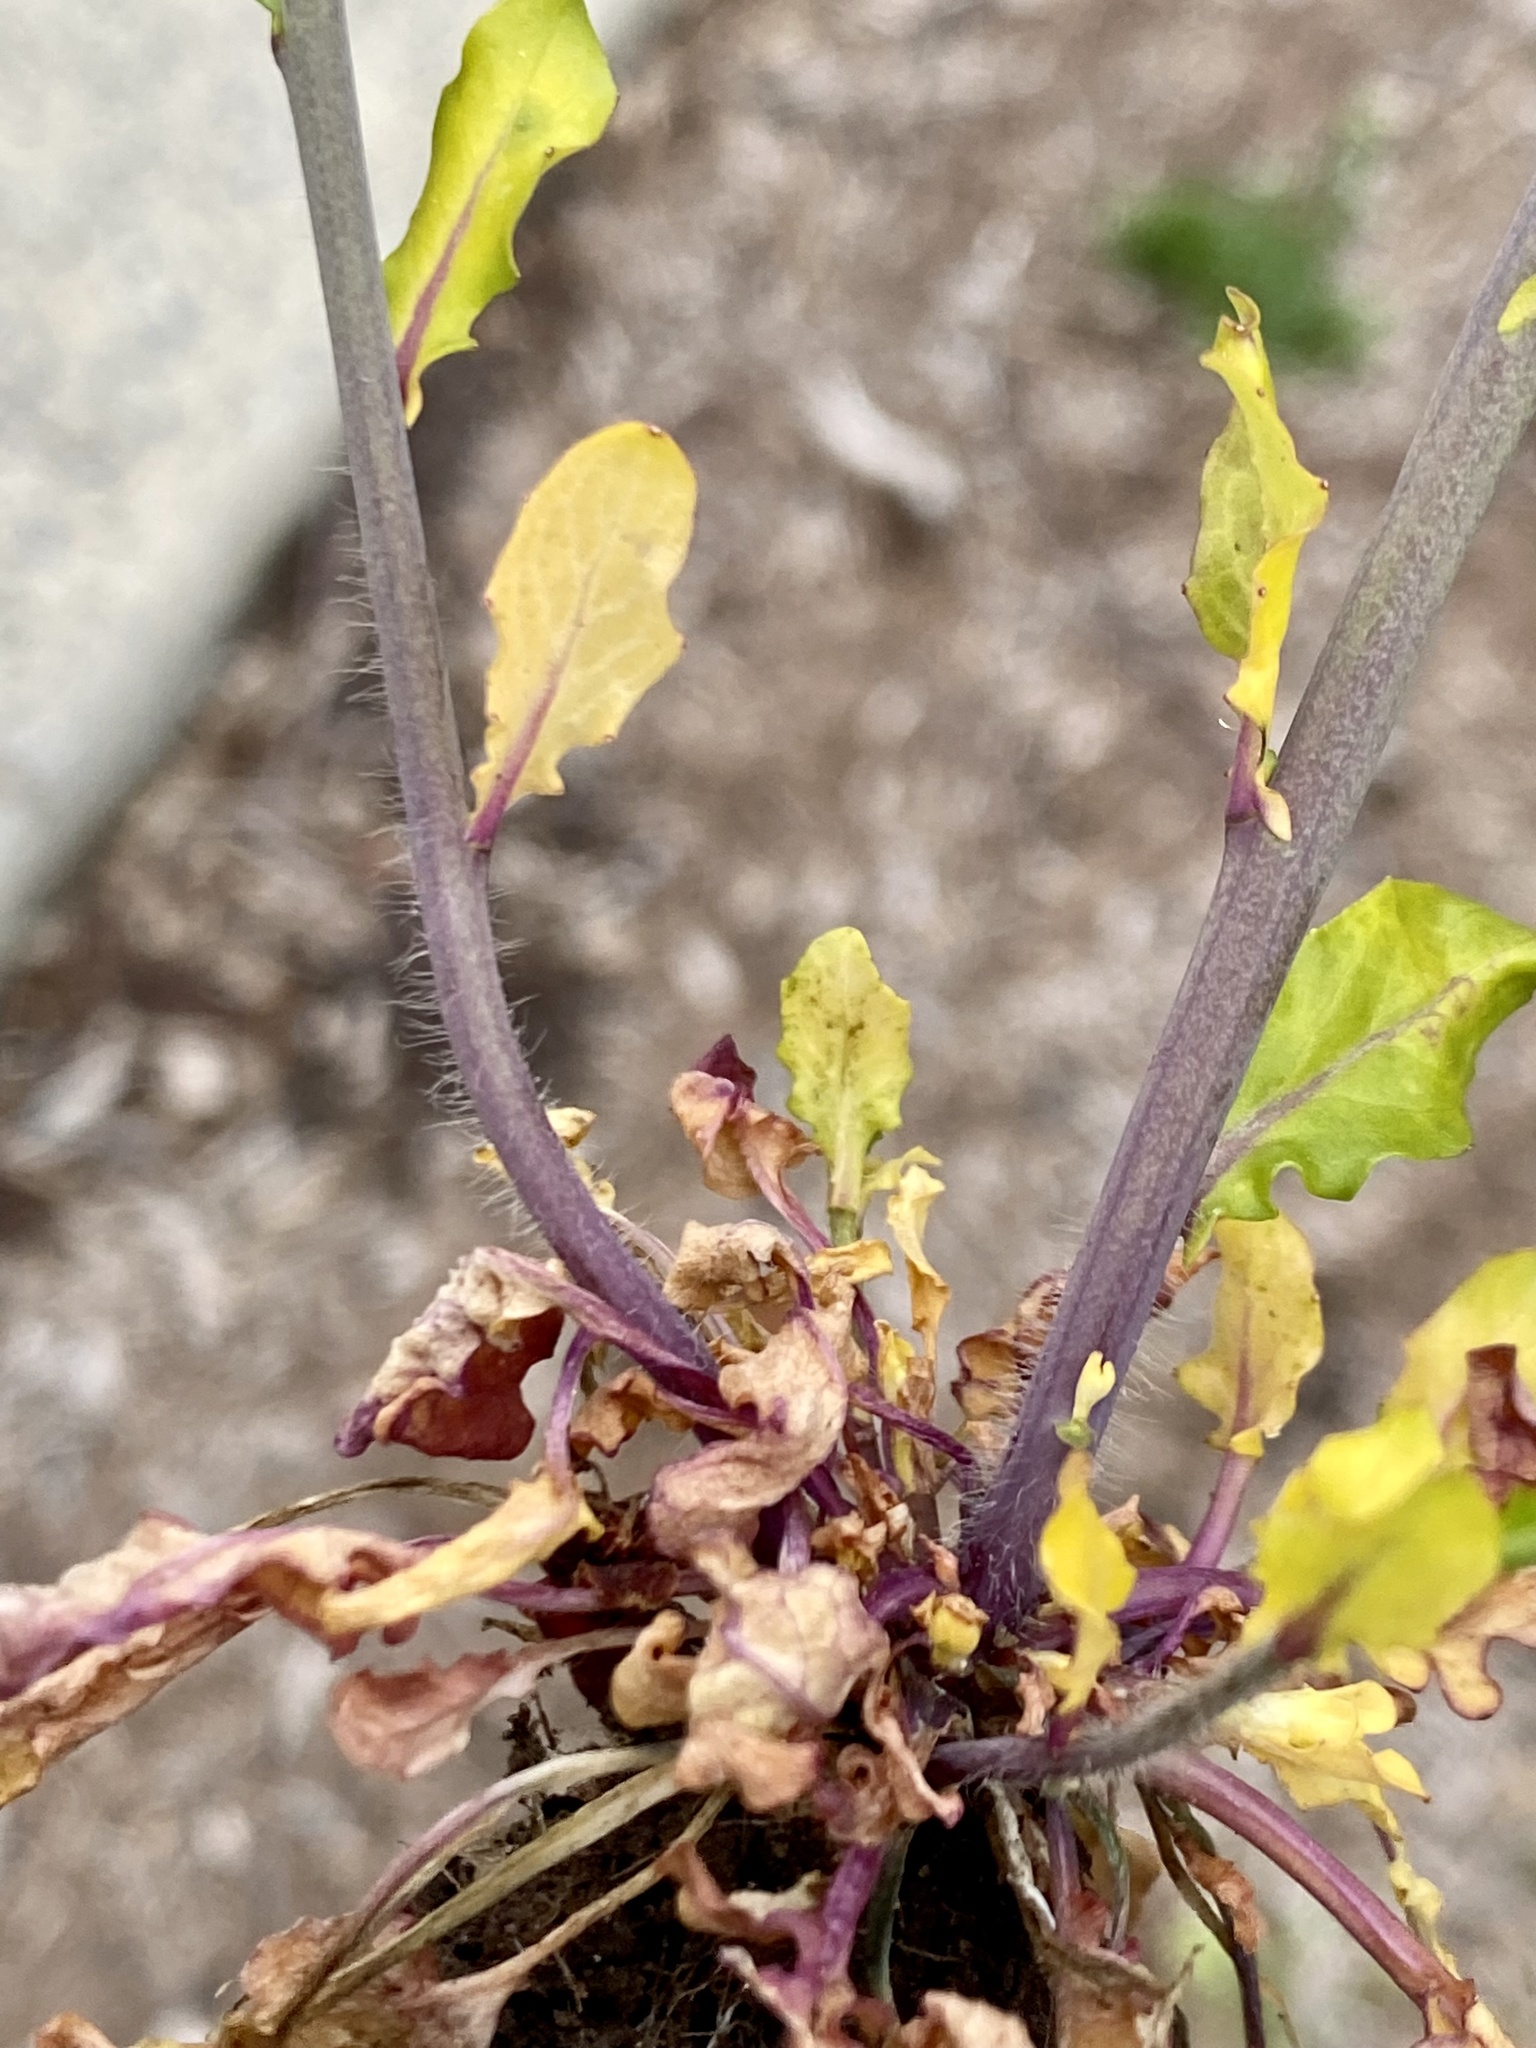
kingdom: Plantae
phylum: Tracheophyta
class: Magnoliopsida
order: Brassicales
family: Brassicaceae
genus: Mummenhoffia
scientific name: Mummenhoffia alliacea
